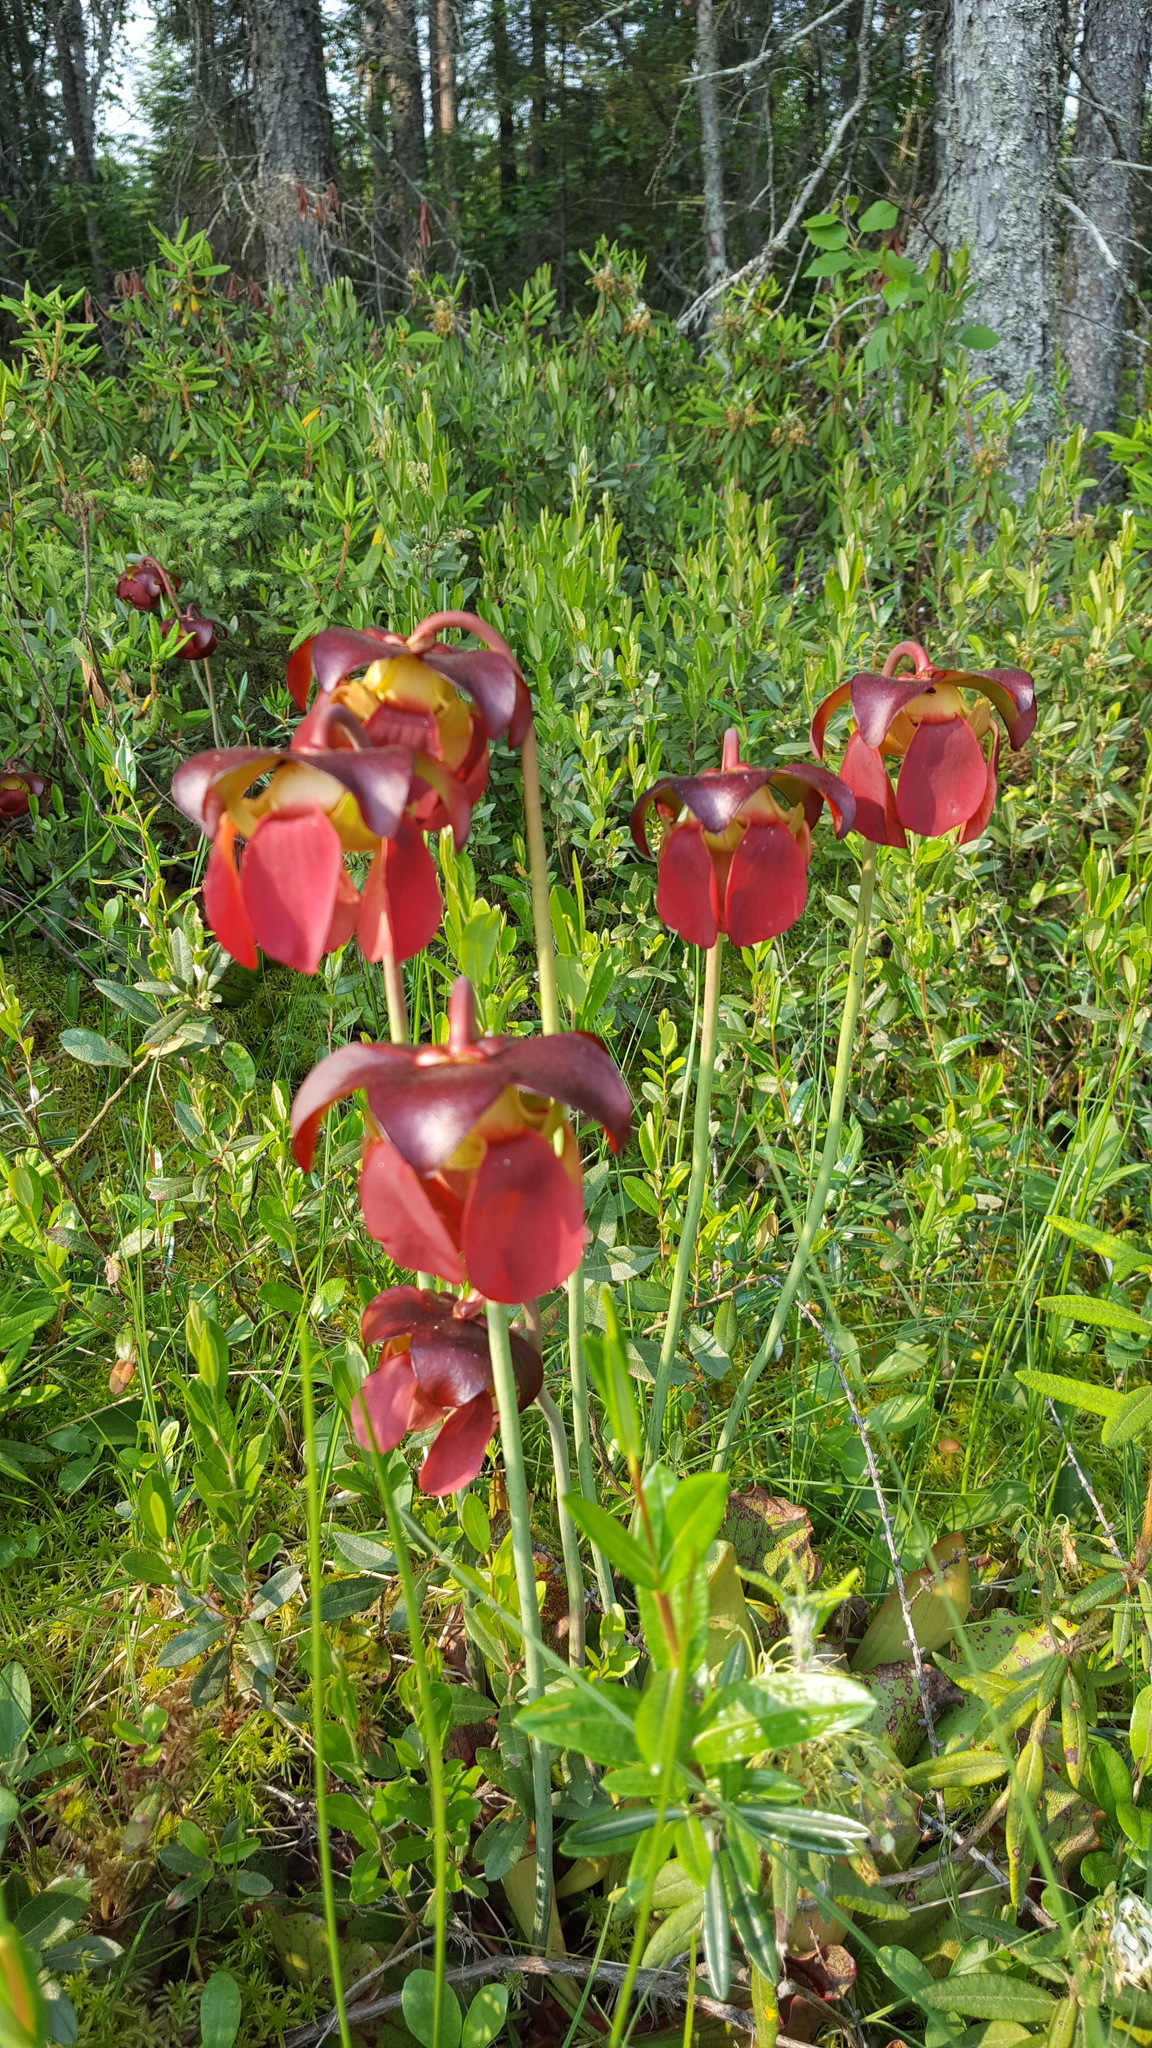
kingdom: Plantae
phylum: Tracheophyta
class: Magnoliopsida
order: Ericales
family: Sarraceniaceae
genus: Sarracenia
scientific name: Sarracenia purpurea
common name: Pitcherplant
